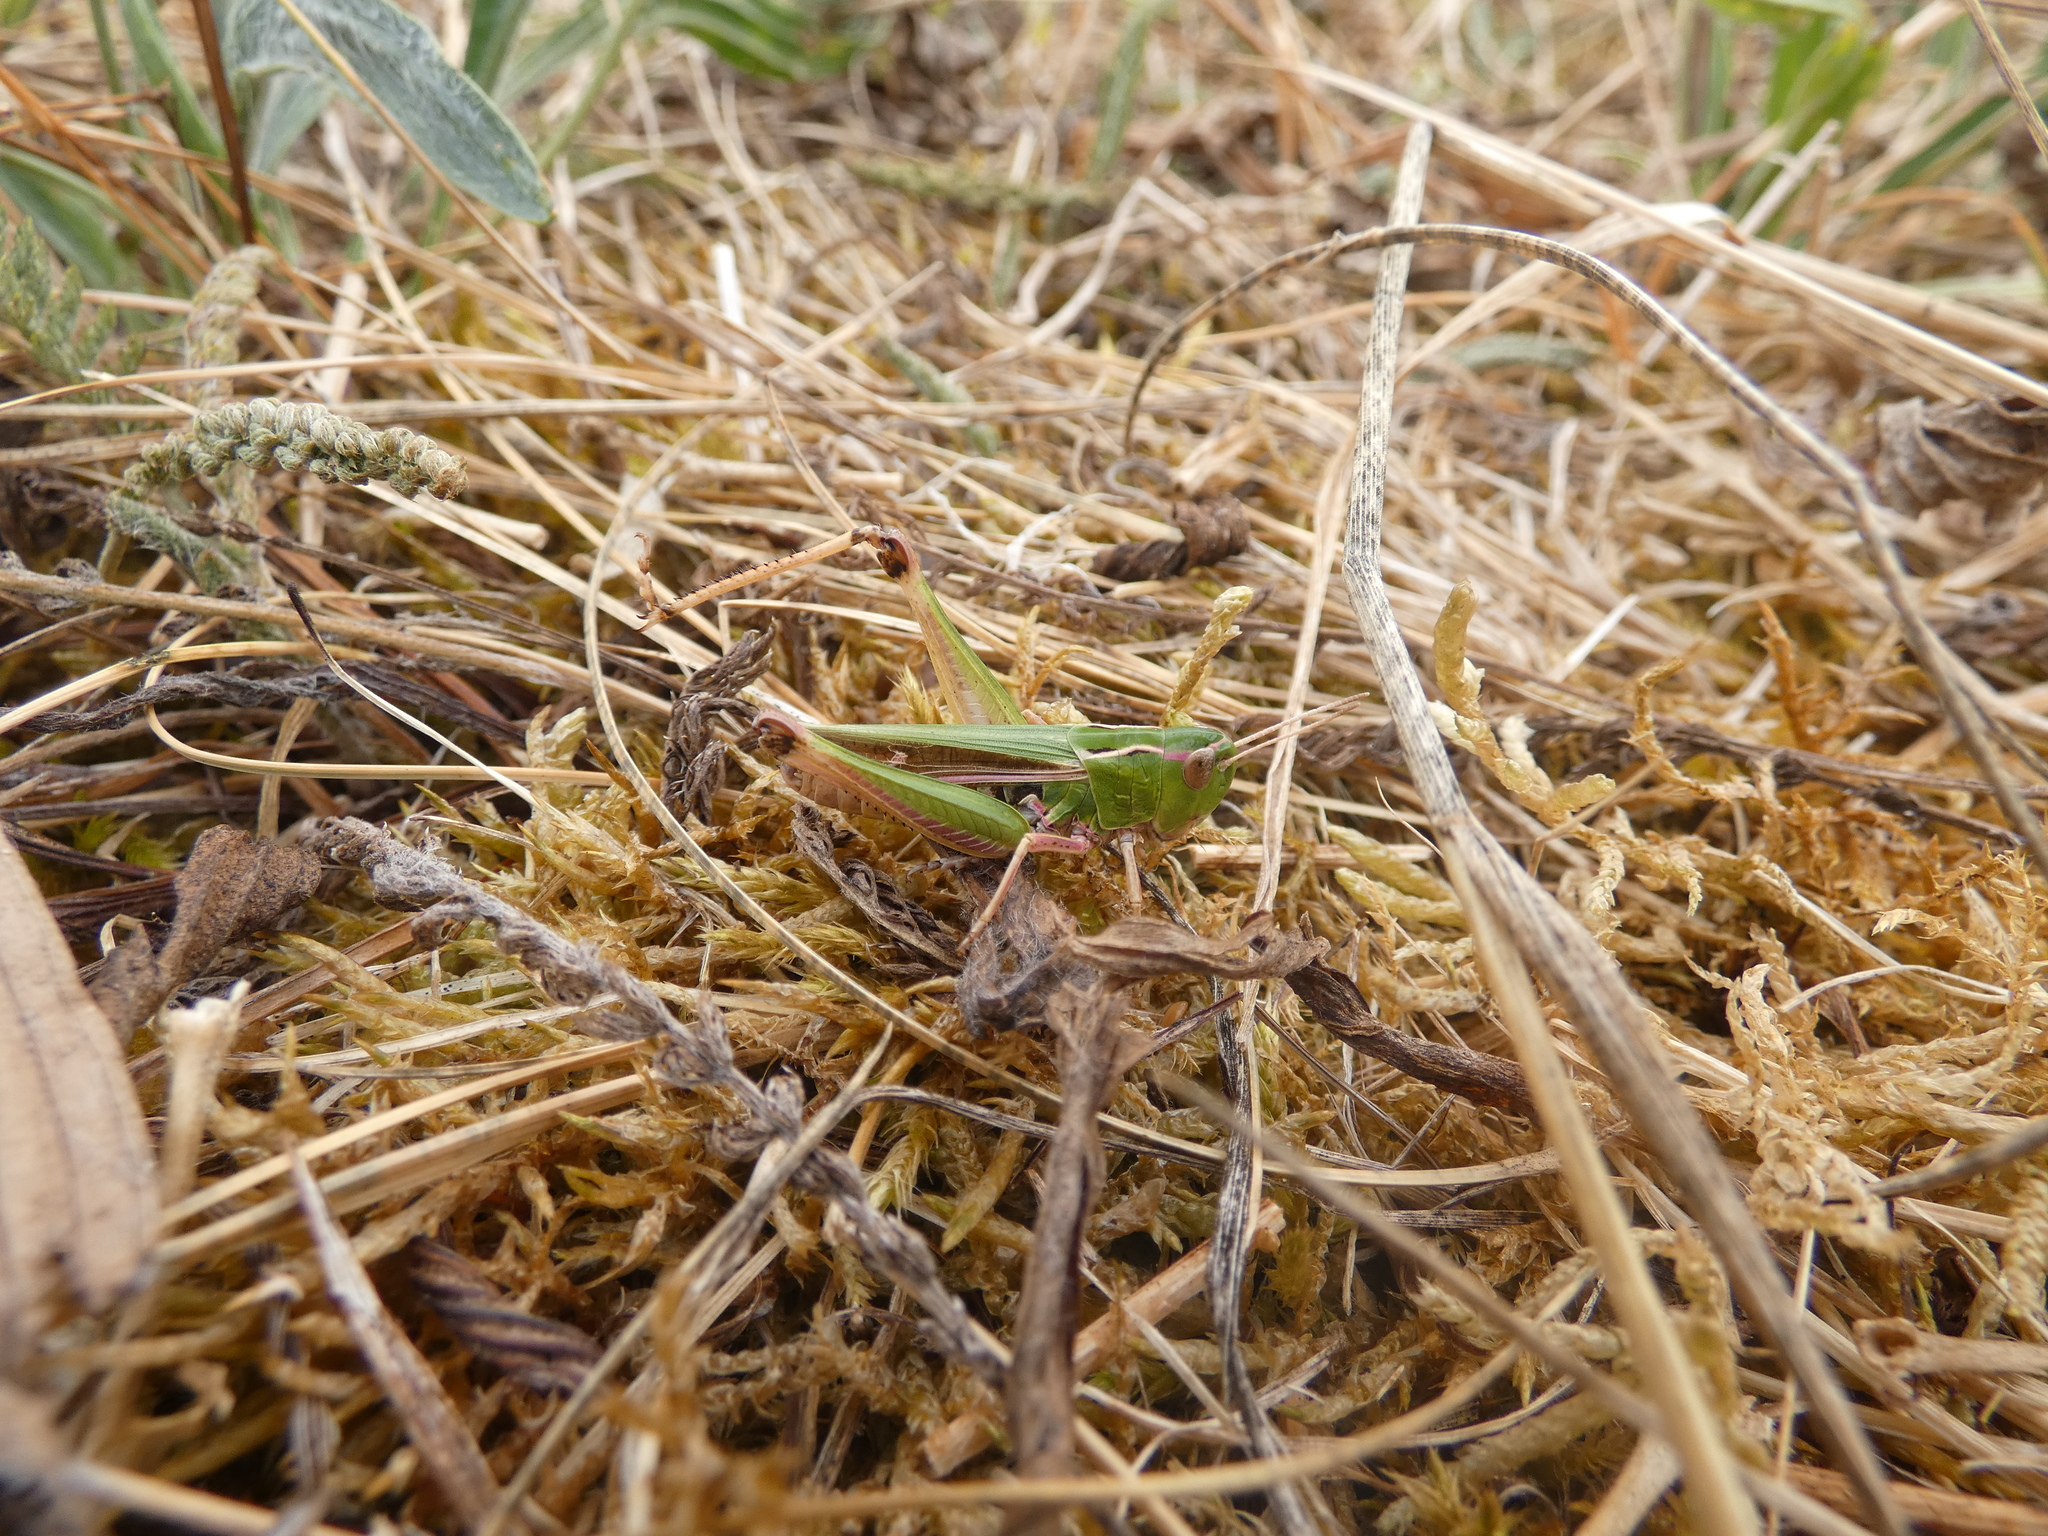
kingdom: Animalia
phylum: Arthropoda
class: Insecta
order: Orthoptera
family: Acrididae
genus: Stenobothrus
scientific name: Stenobothrus lineatus
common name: Stripe-winged grasshopper
